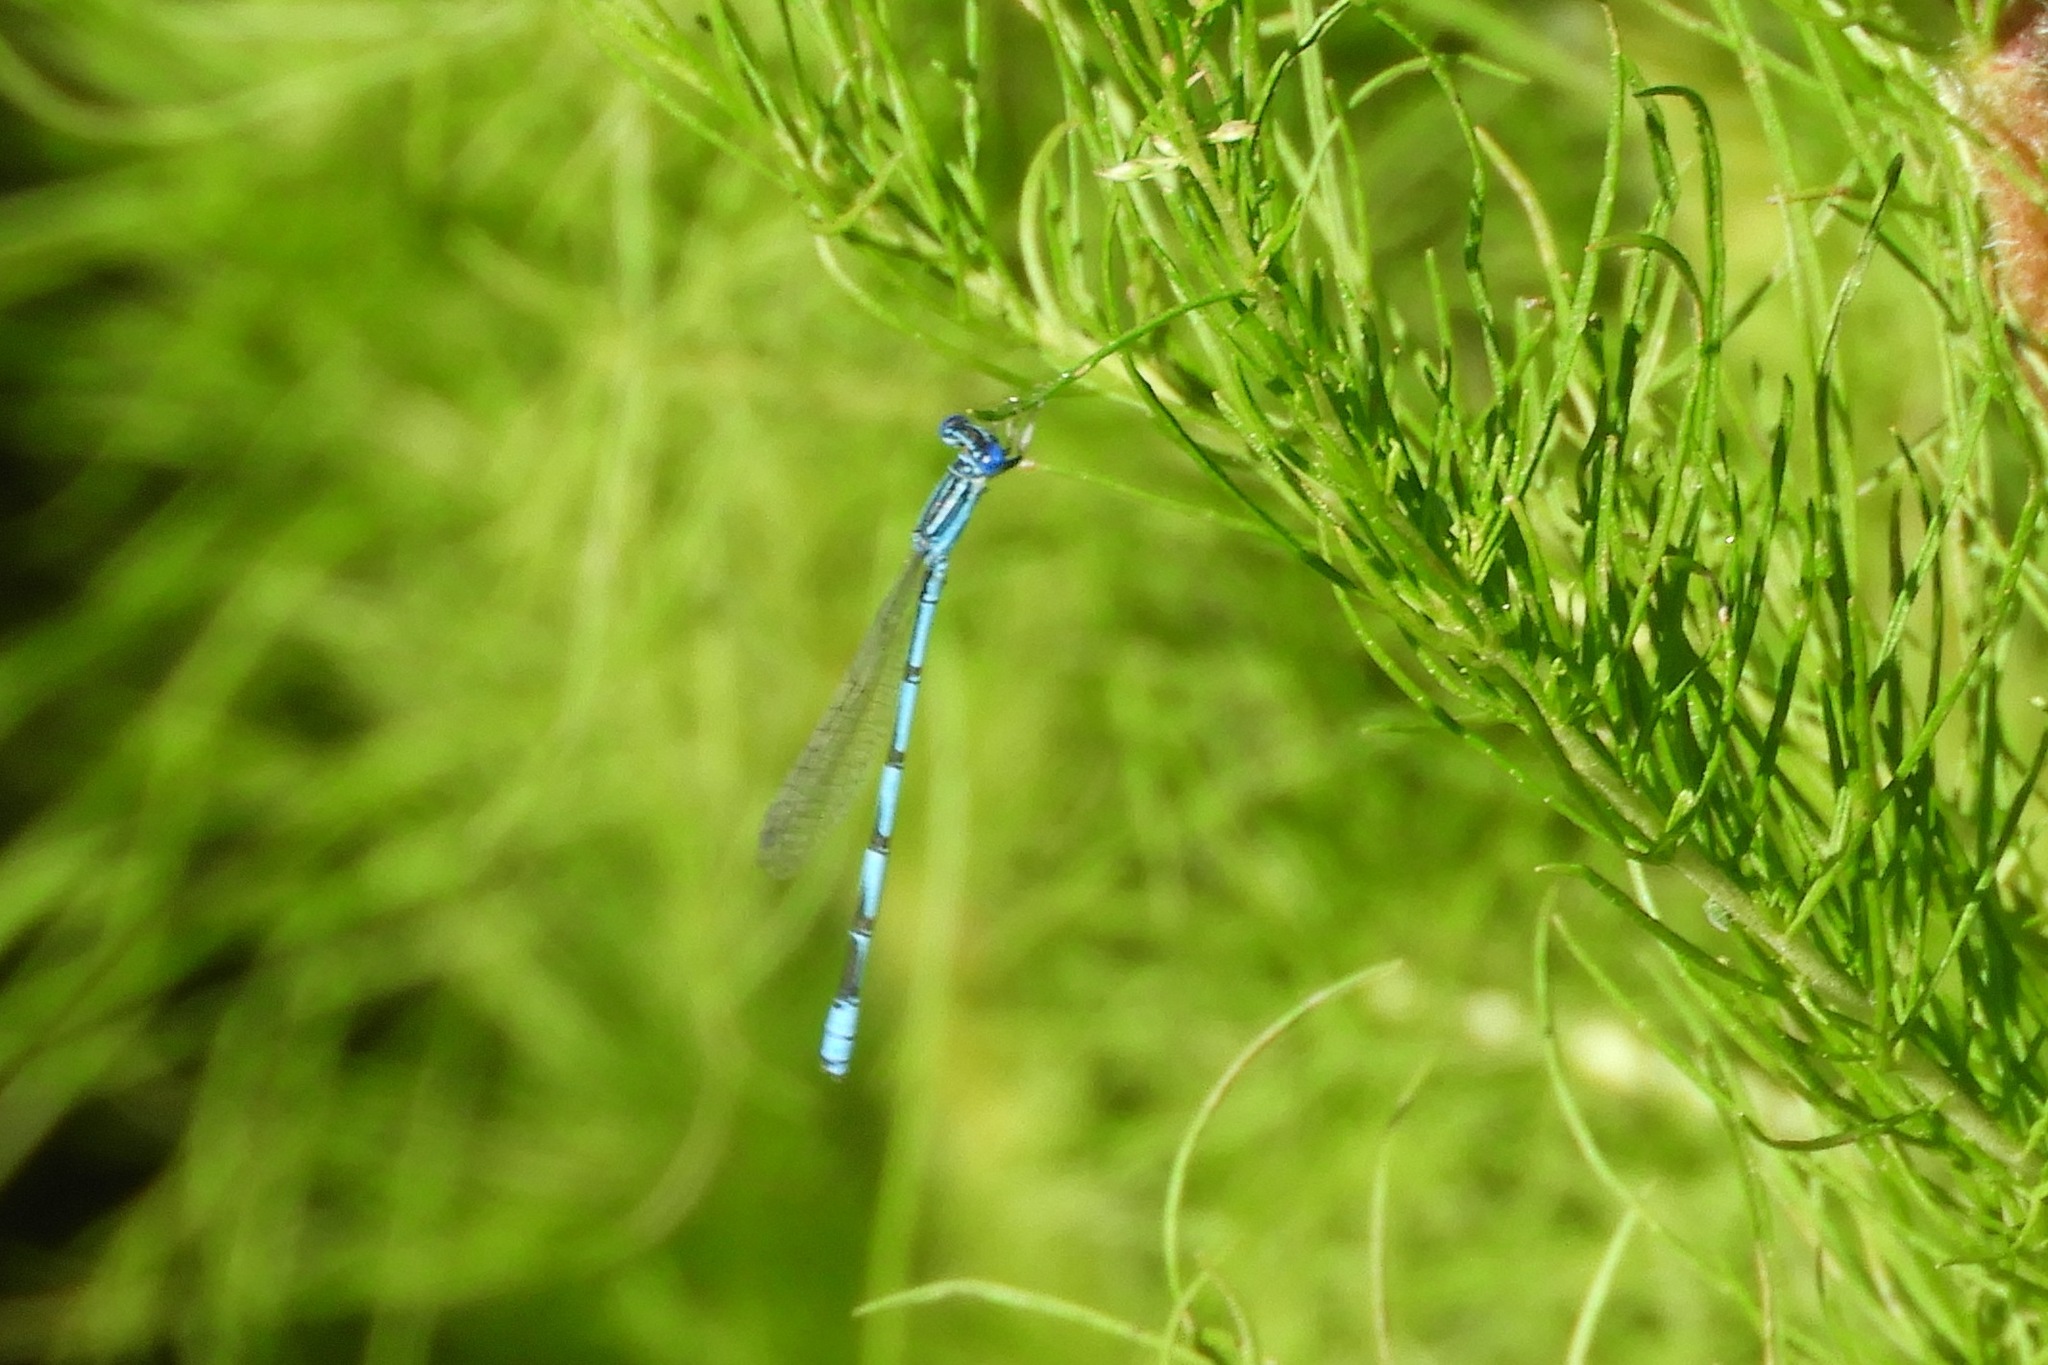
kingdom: Animalia
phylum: Arthropoda
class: Insecta
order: Odonata
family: Coenagrionidae
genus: Enallagma
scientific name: Enallagma basidens
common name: Double-striped bluet
